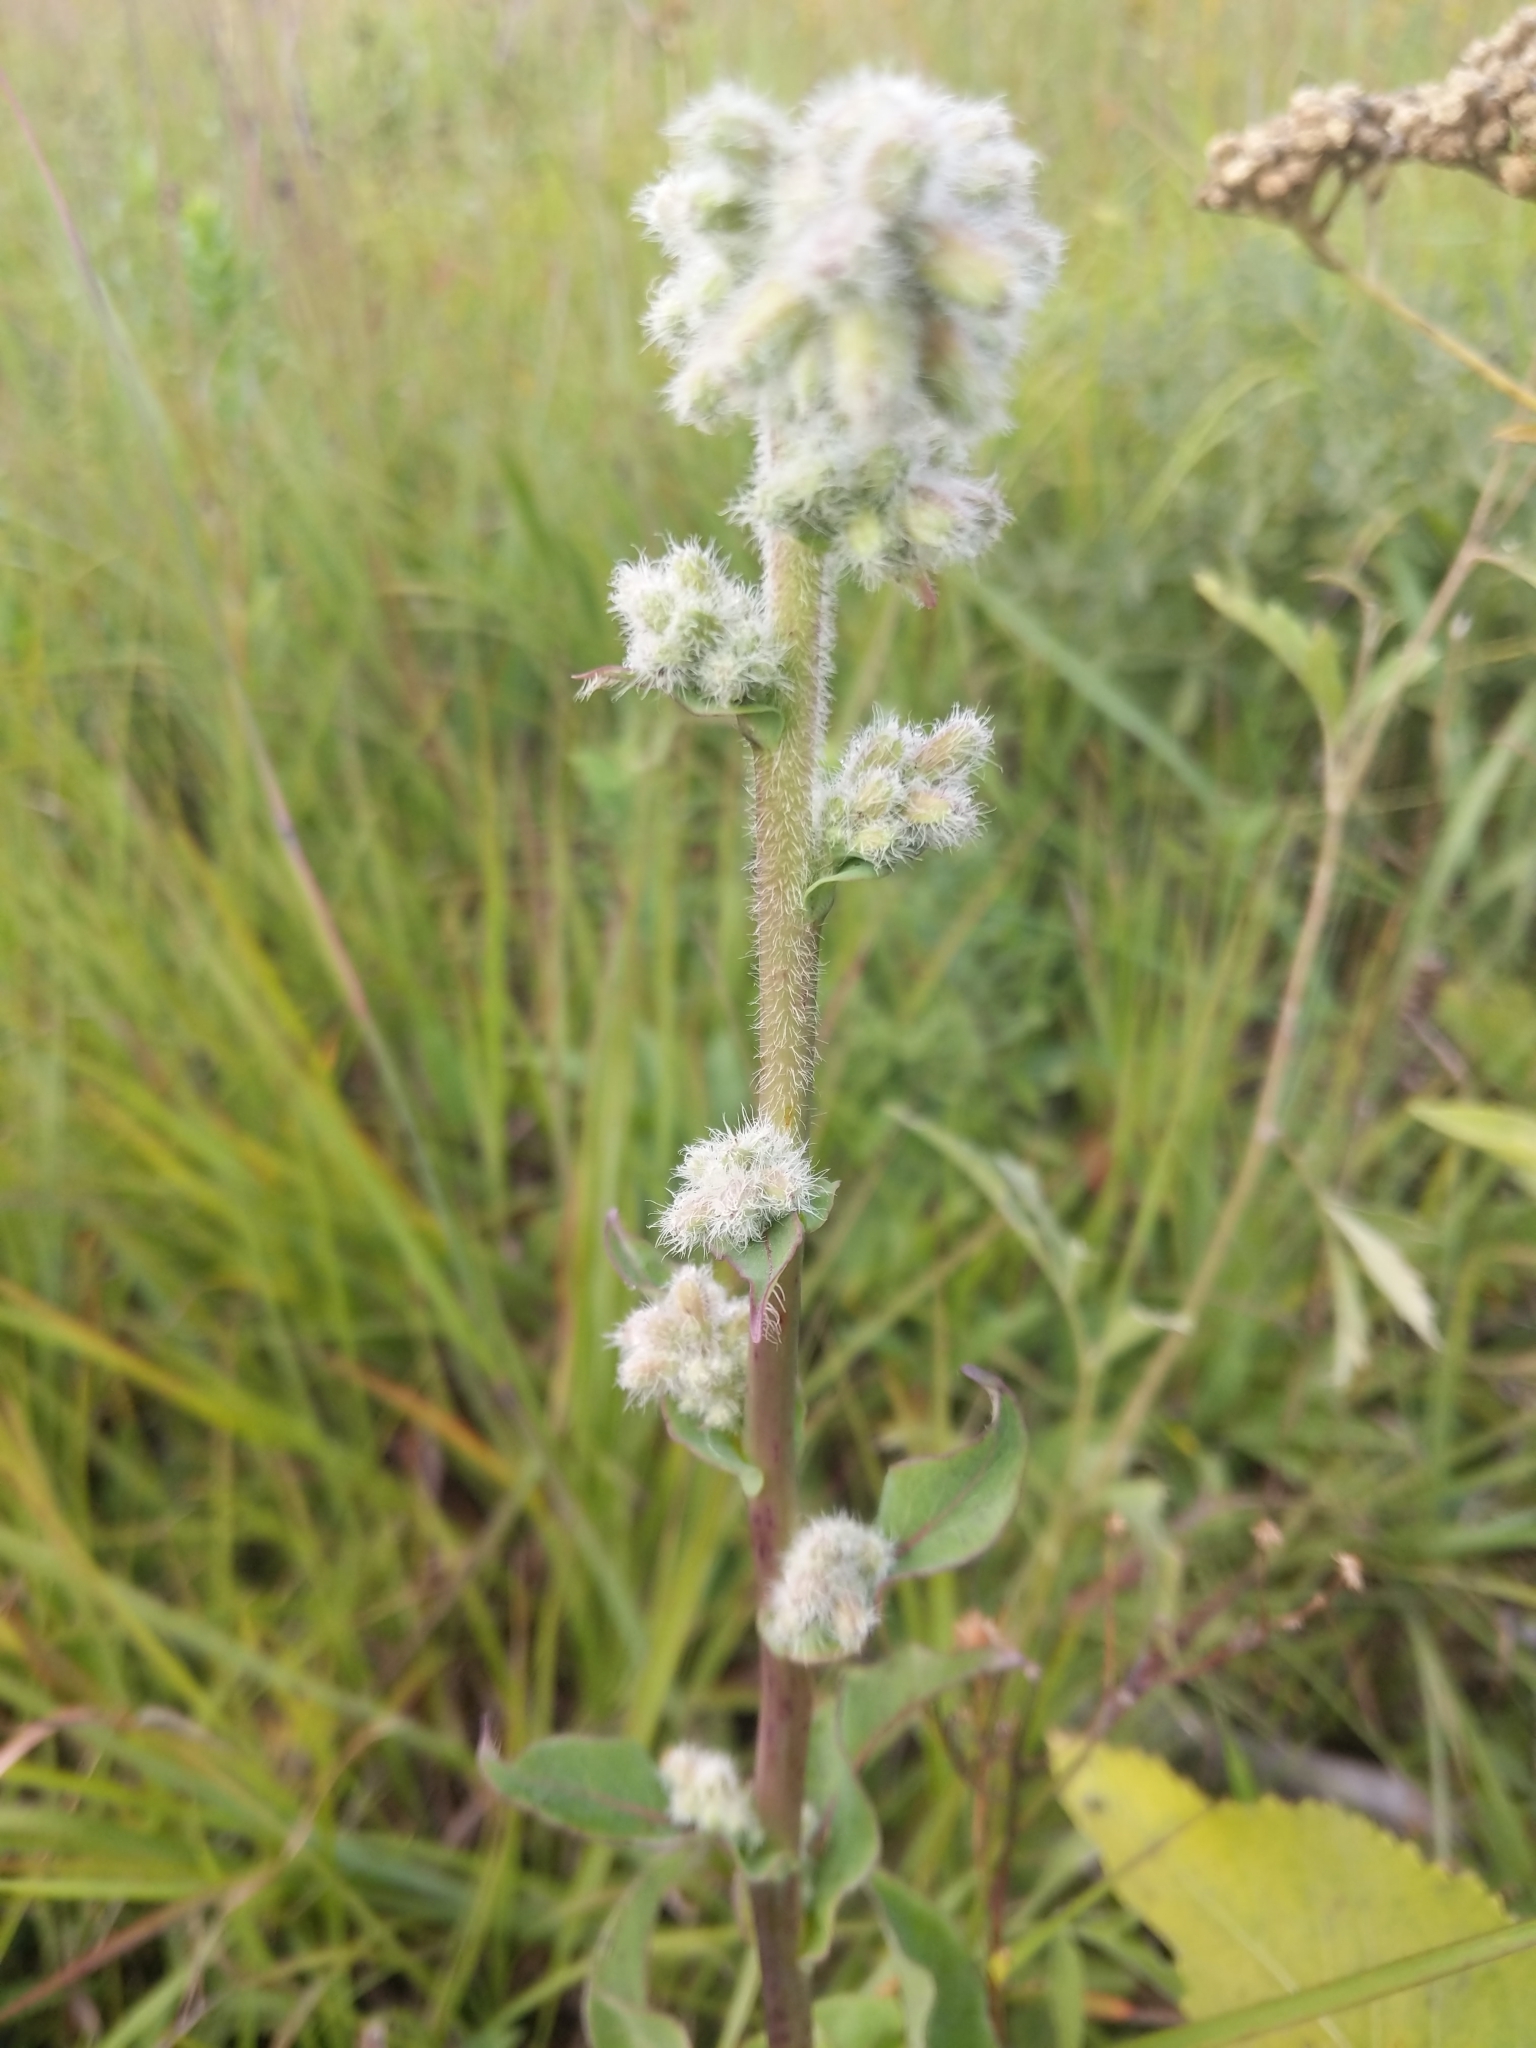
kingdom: Plantae
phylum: Tracheophyta
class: Magnoliopsida
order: Asterales
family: Asteraceae
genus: Nabalus
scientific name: Nabalus racemosus
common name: Glaucous white lettuce
